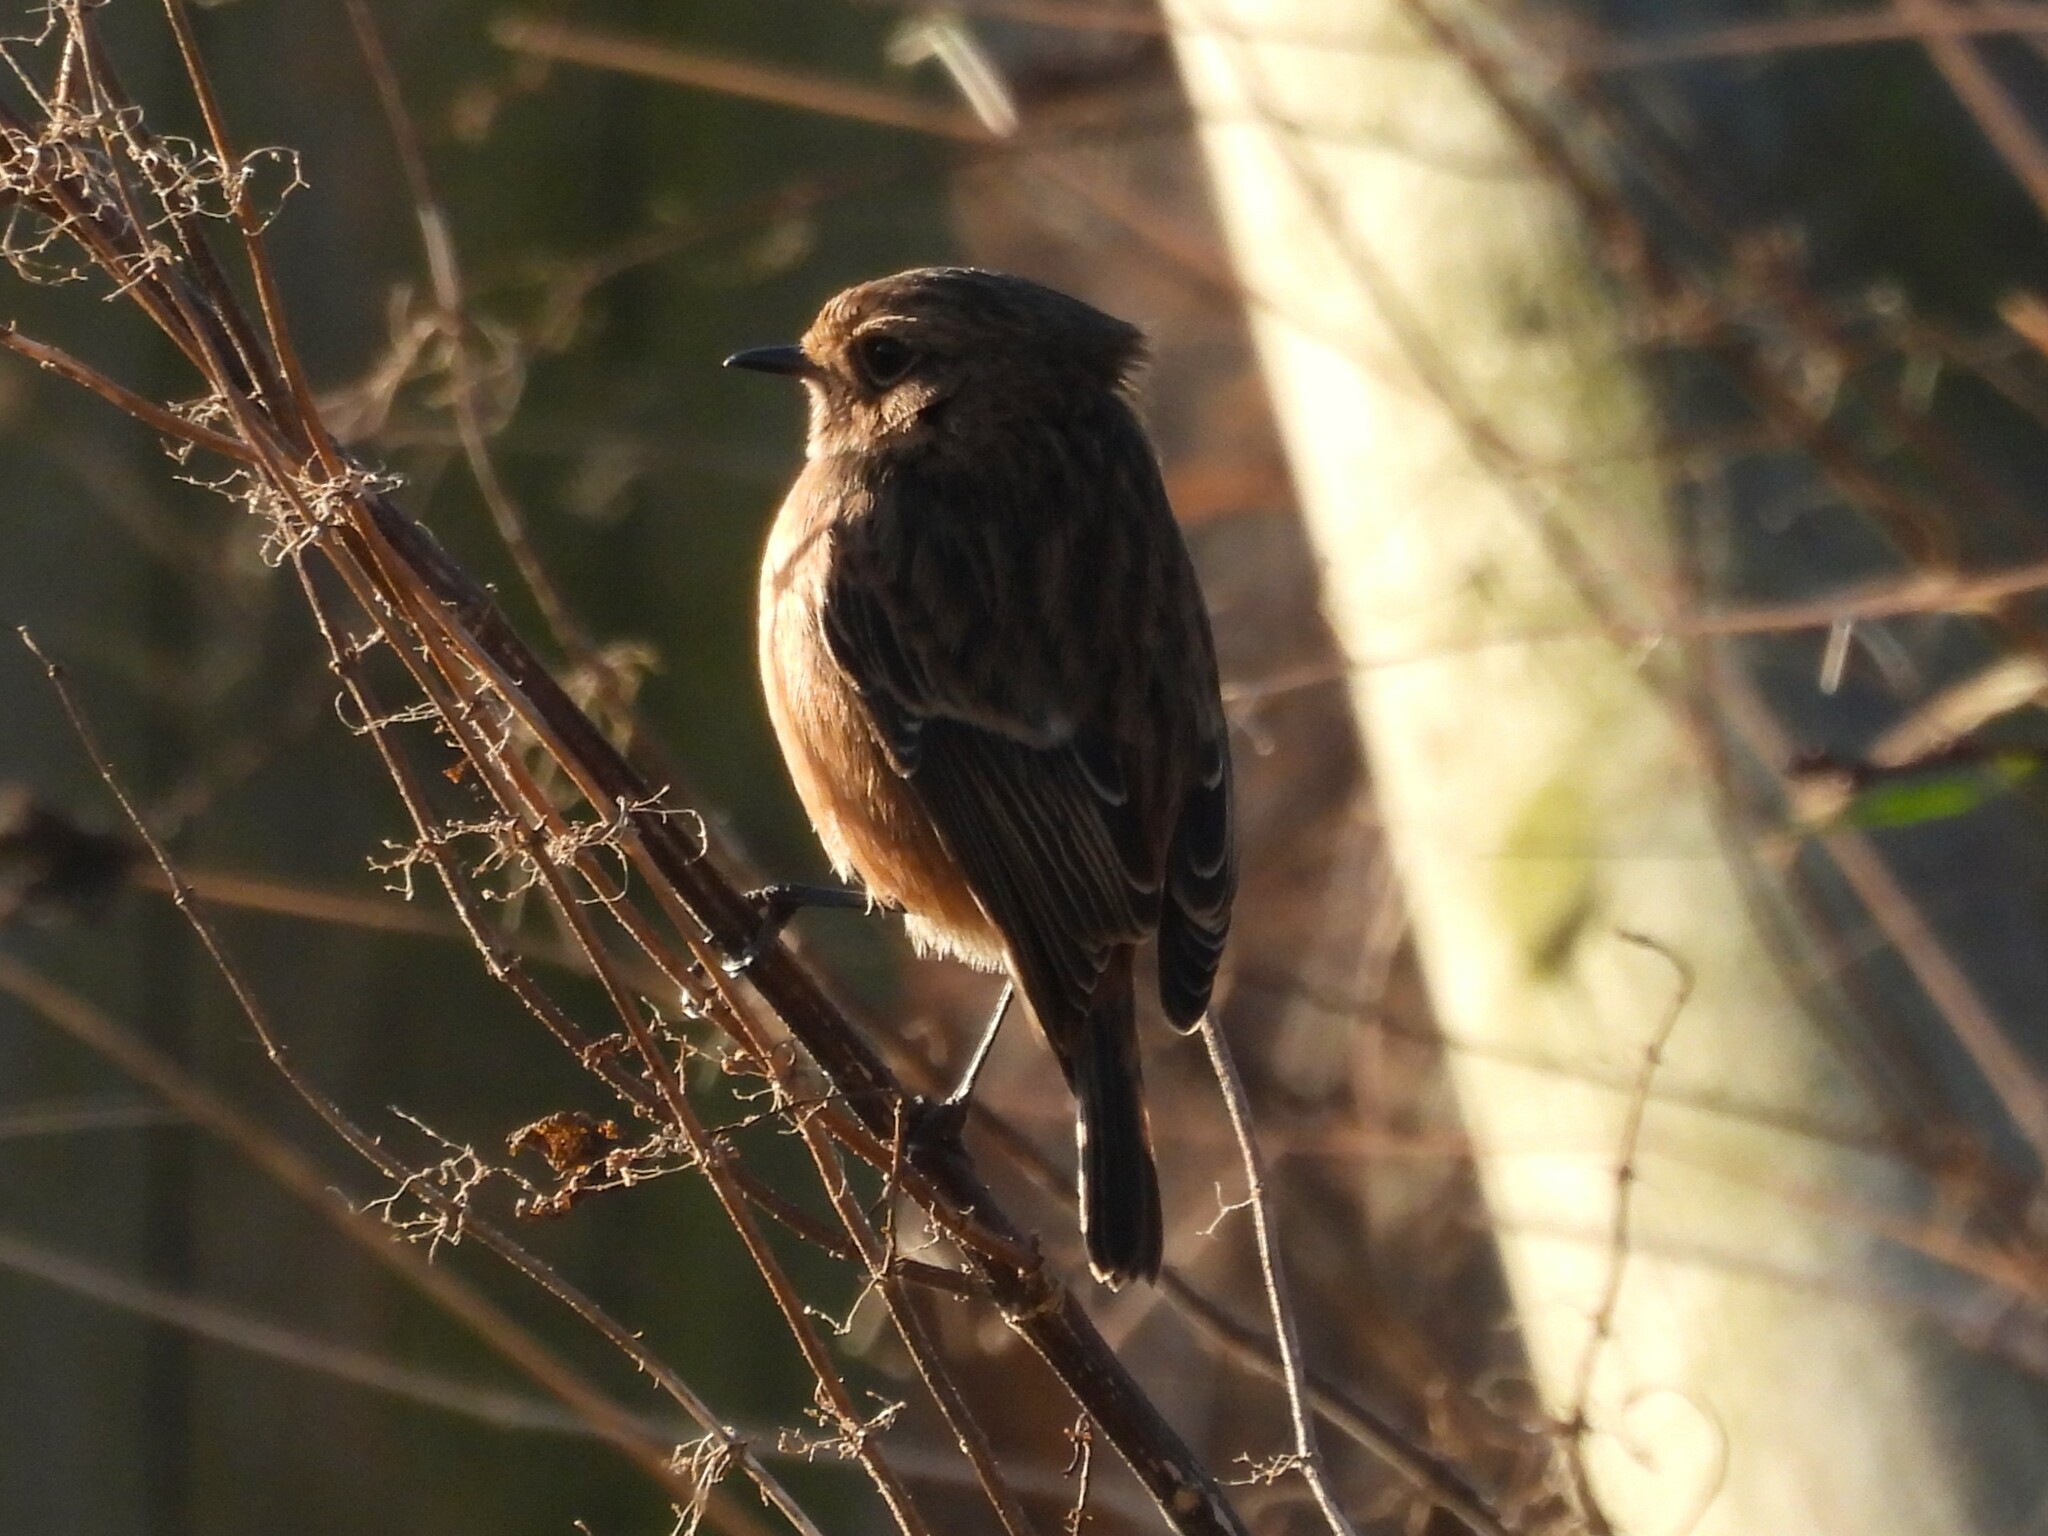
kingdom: Animalia
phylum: Chordata
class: Aves
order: Passeriformes
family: Muscicapidae
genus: Saxicola
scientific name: Saxicola rubicola
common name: European stonechat
